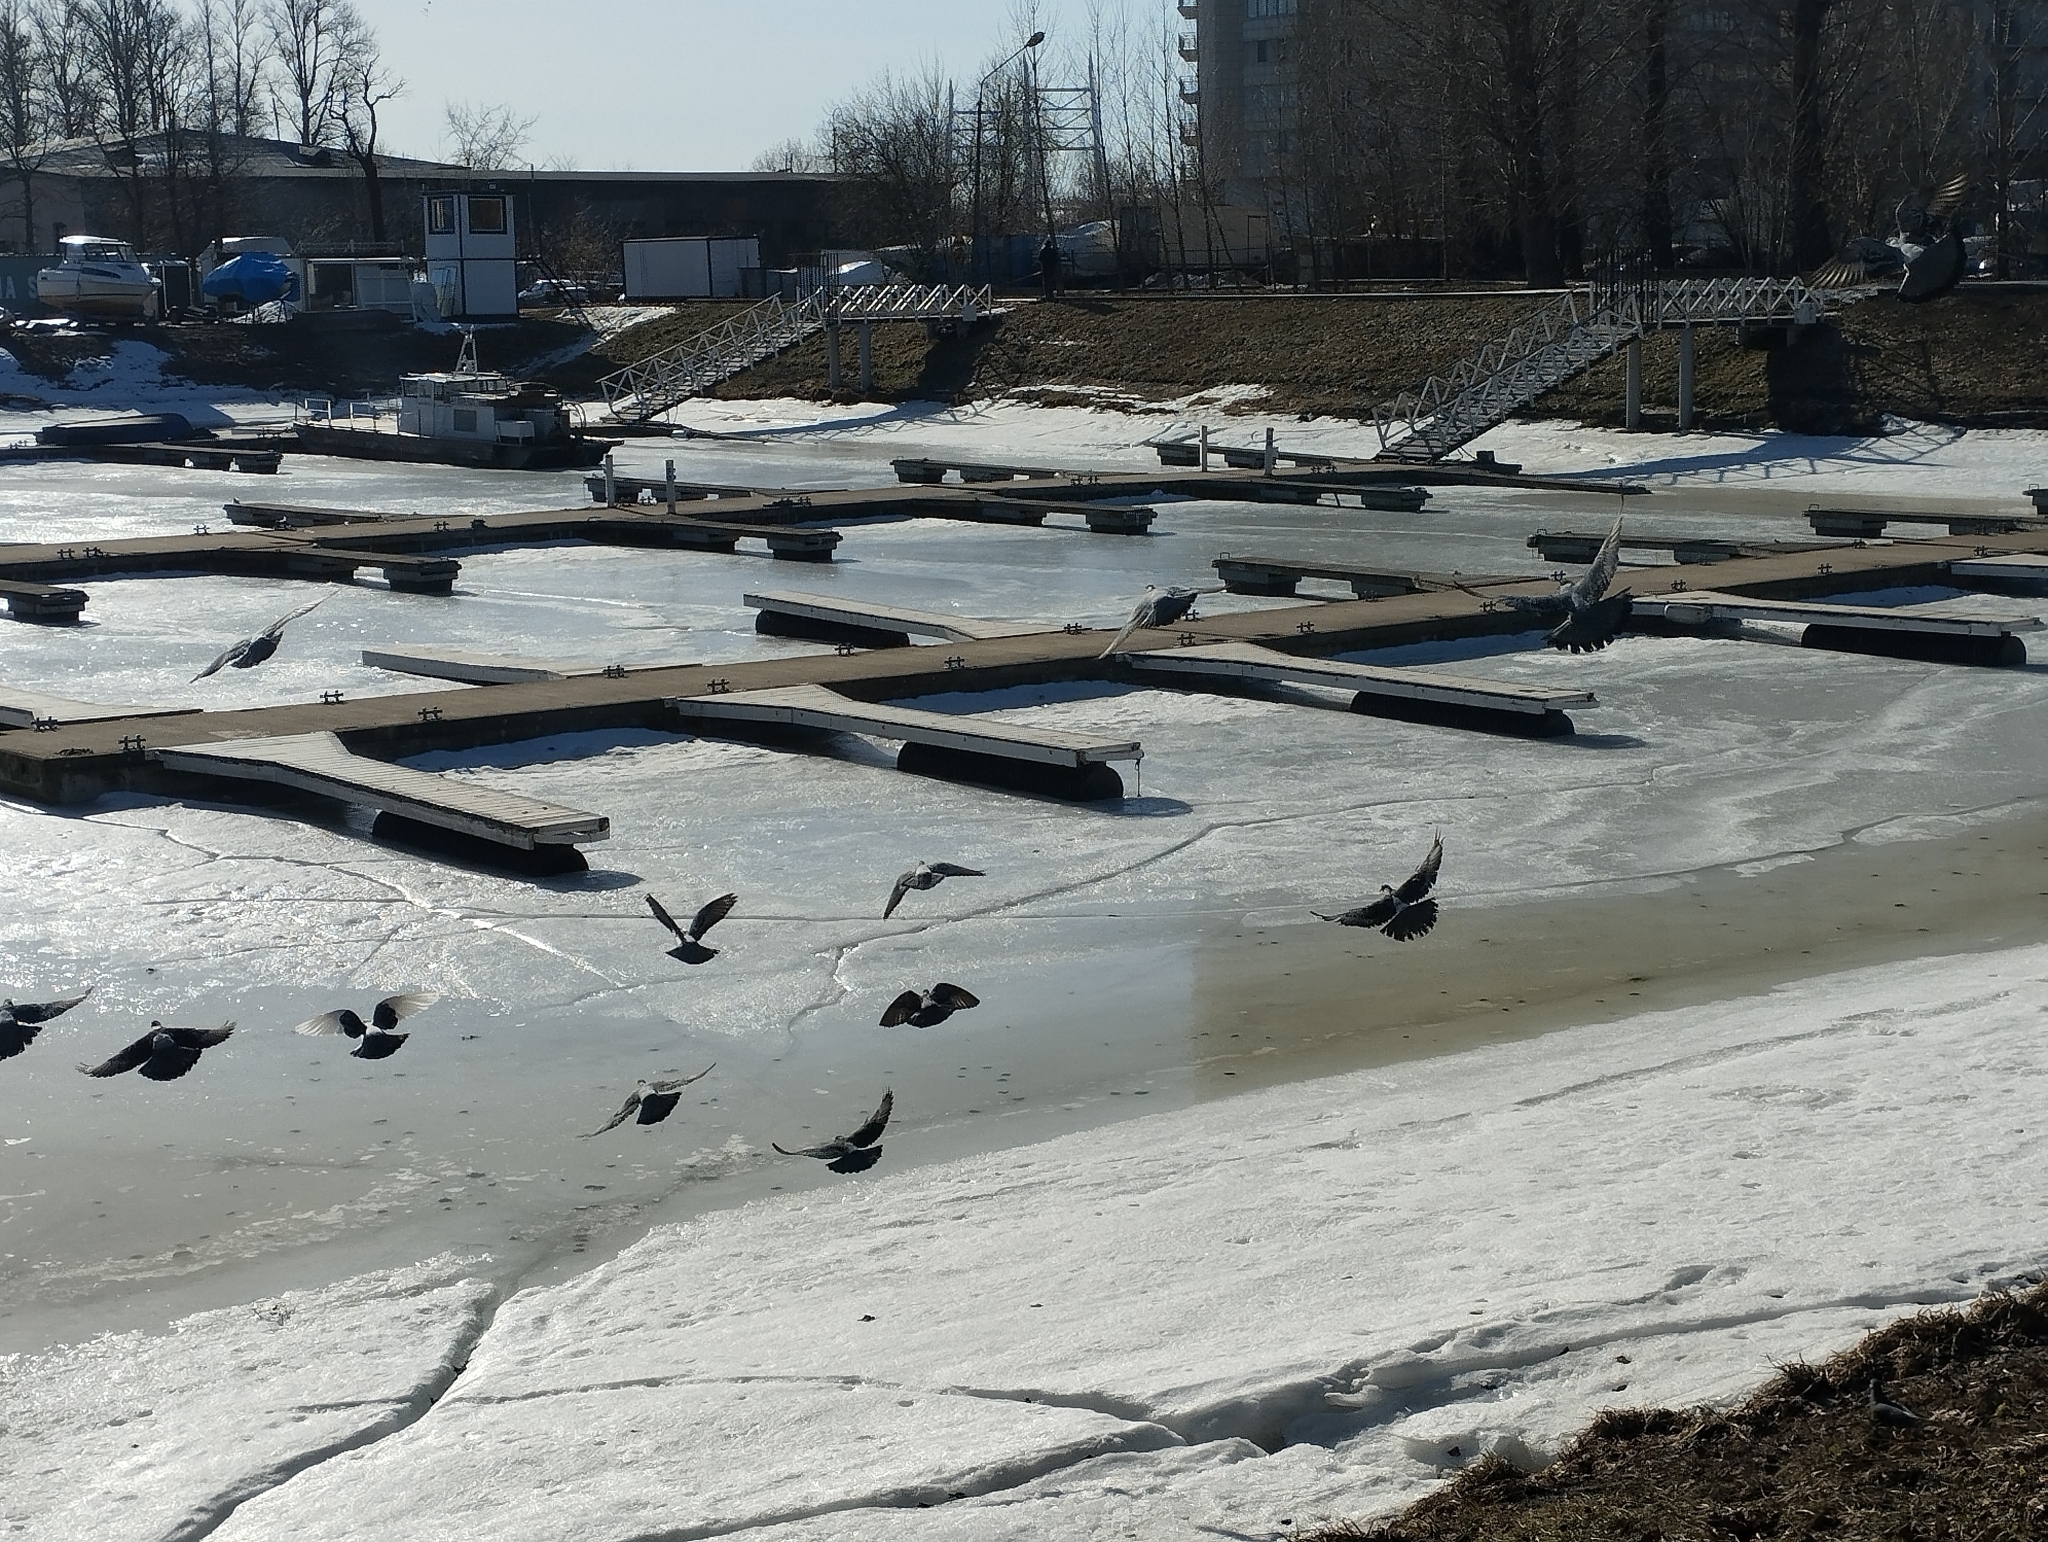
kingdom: Animalia
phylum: Chordata
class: Aves
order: Columbiformes
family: Columbidae
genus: Columba
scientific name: Columba livia
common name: Rock pigeon
